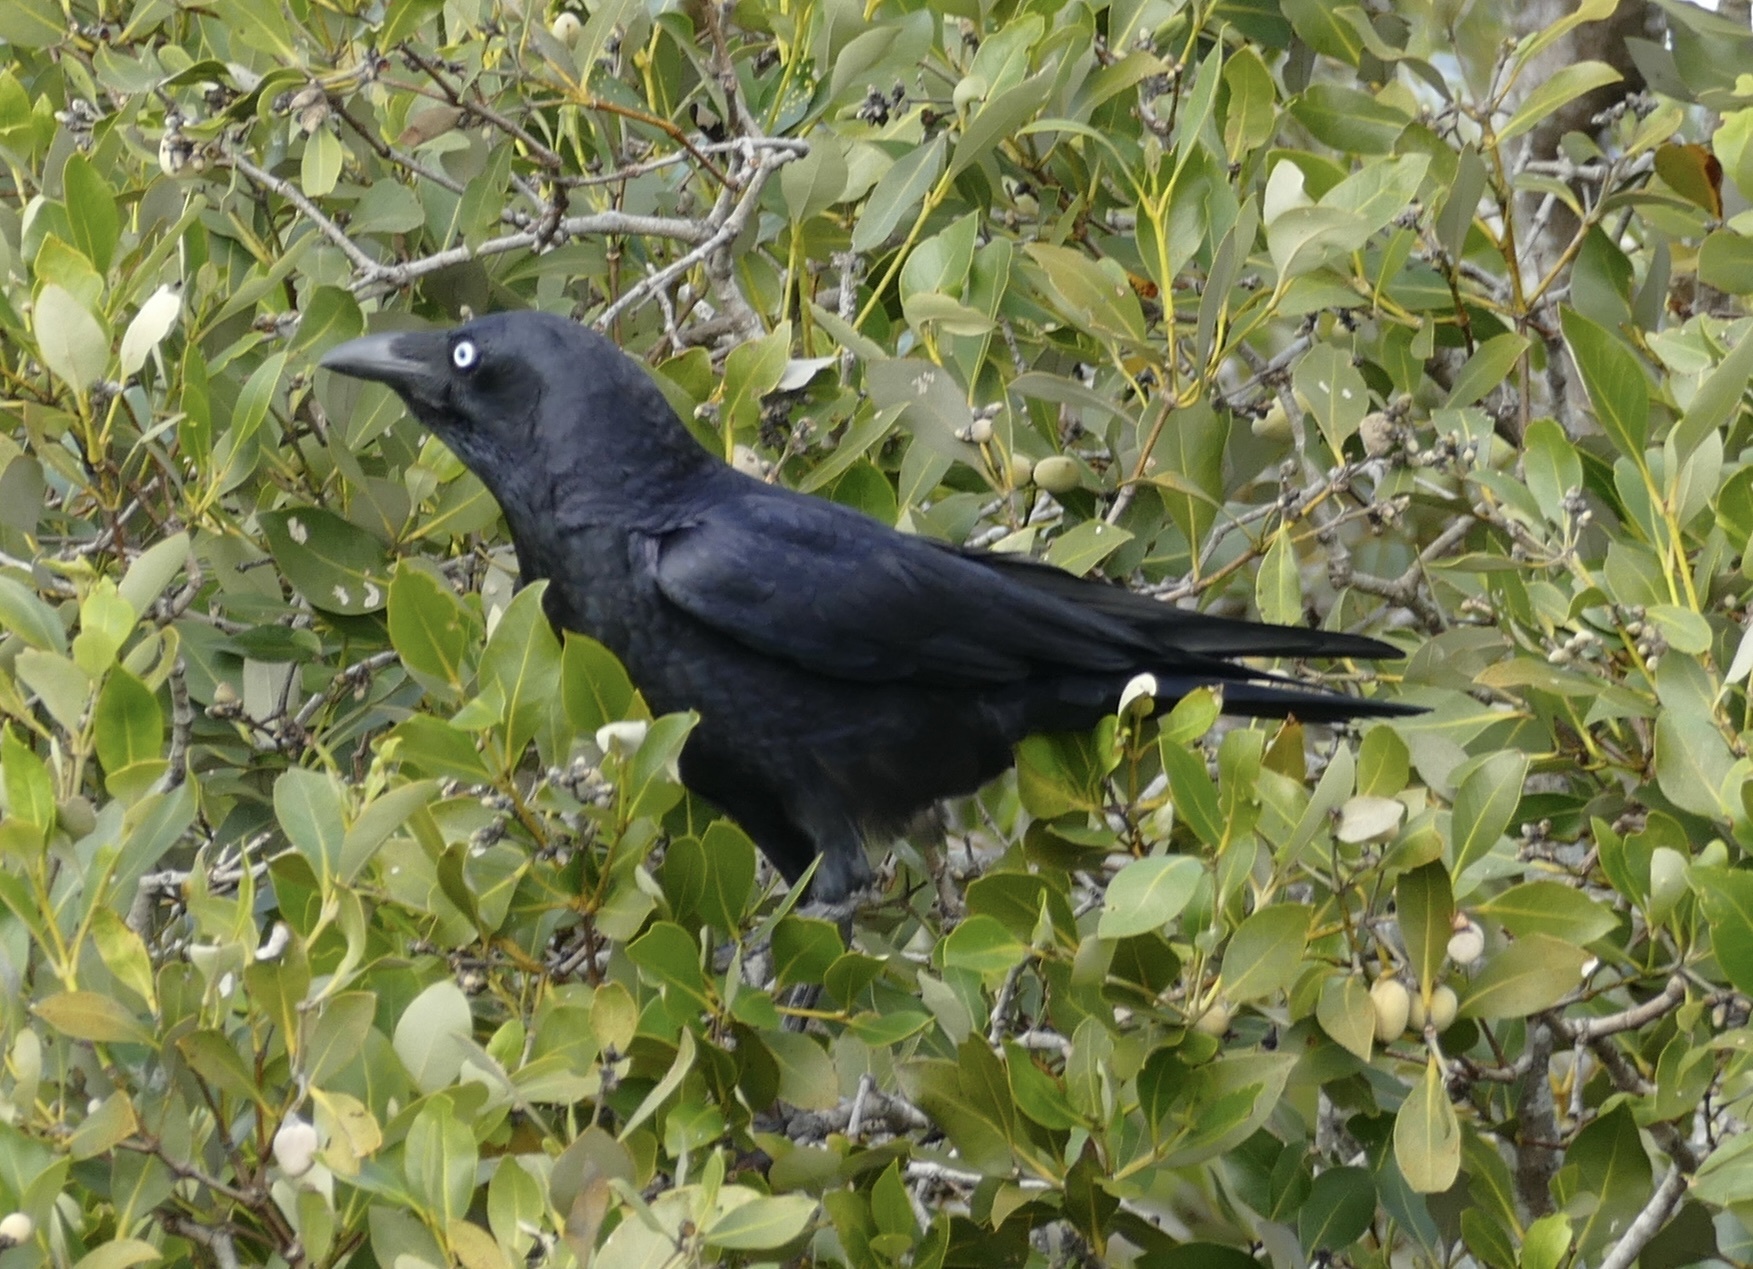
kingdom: Animalia
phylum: Chordata
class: Aves
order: Passeriformes
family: Corvidae
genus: Corvus
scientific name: Corvus orru
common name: Torresian crow
